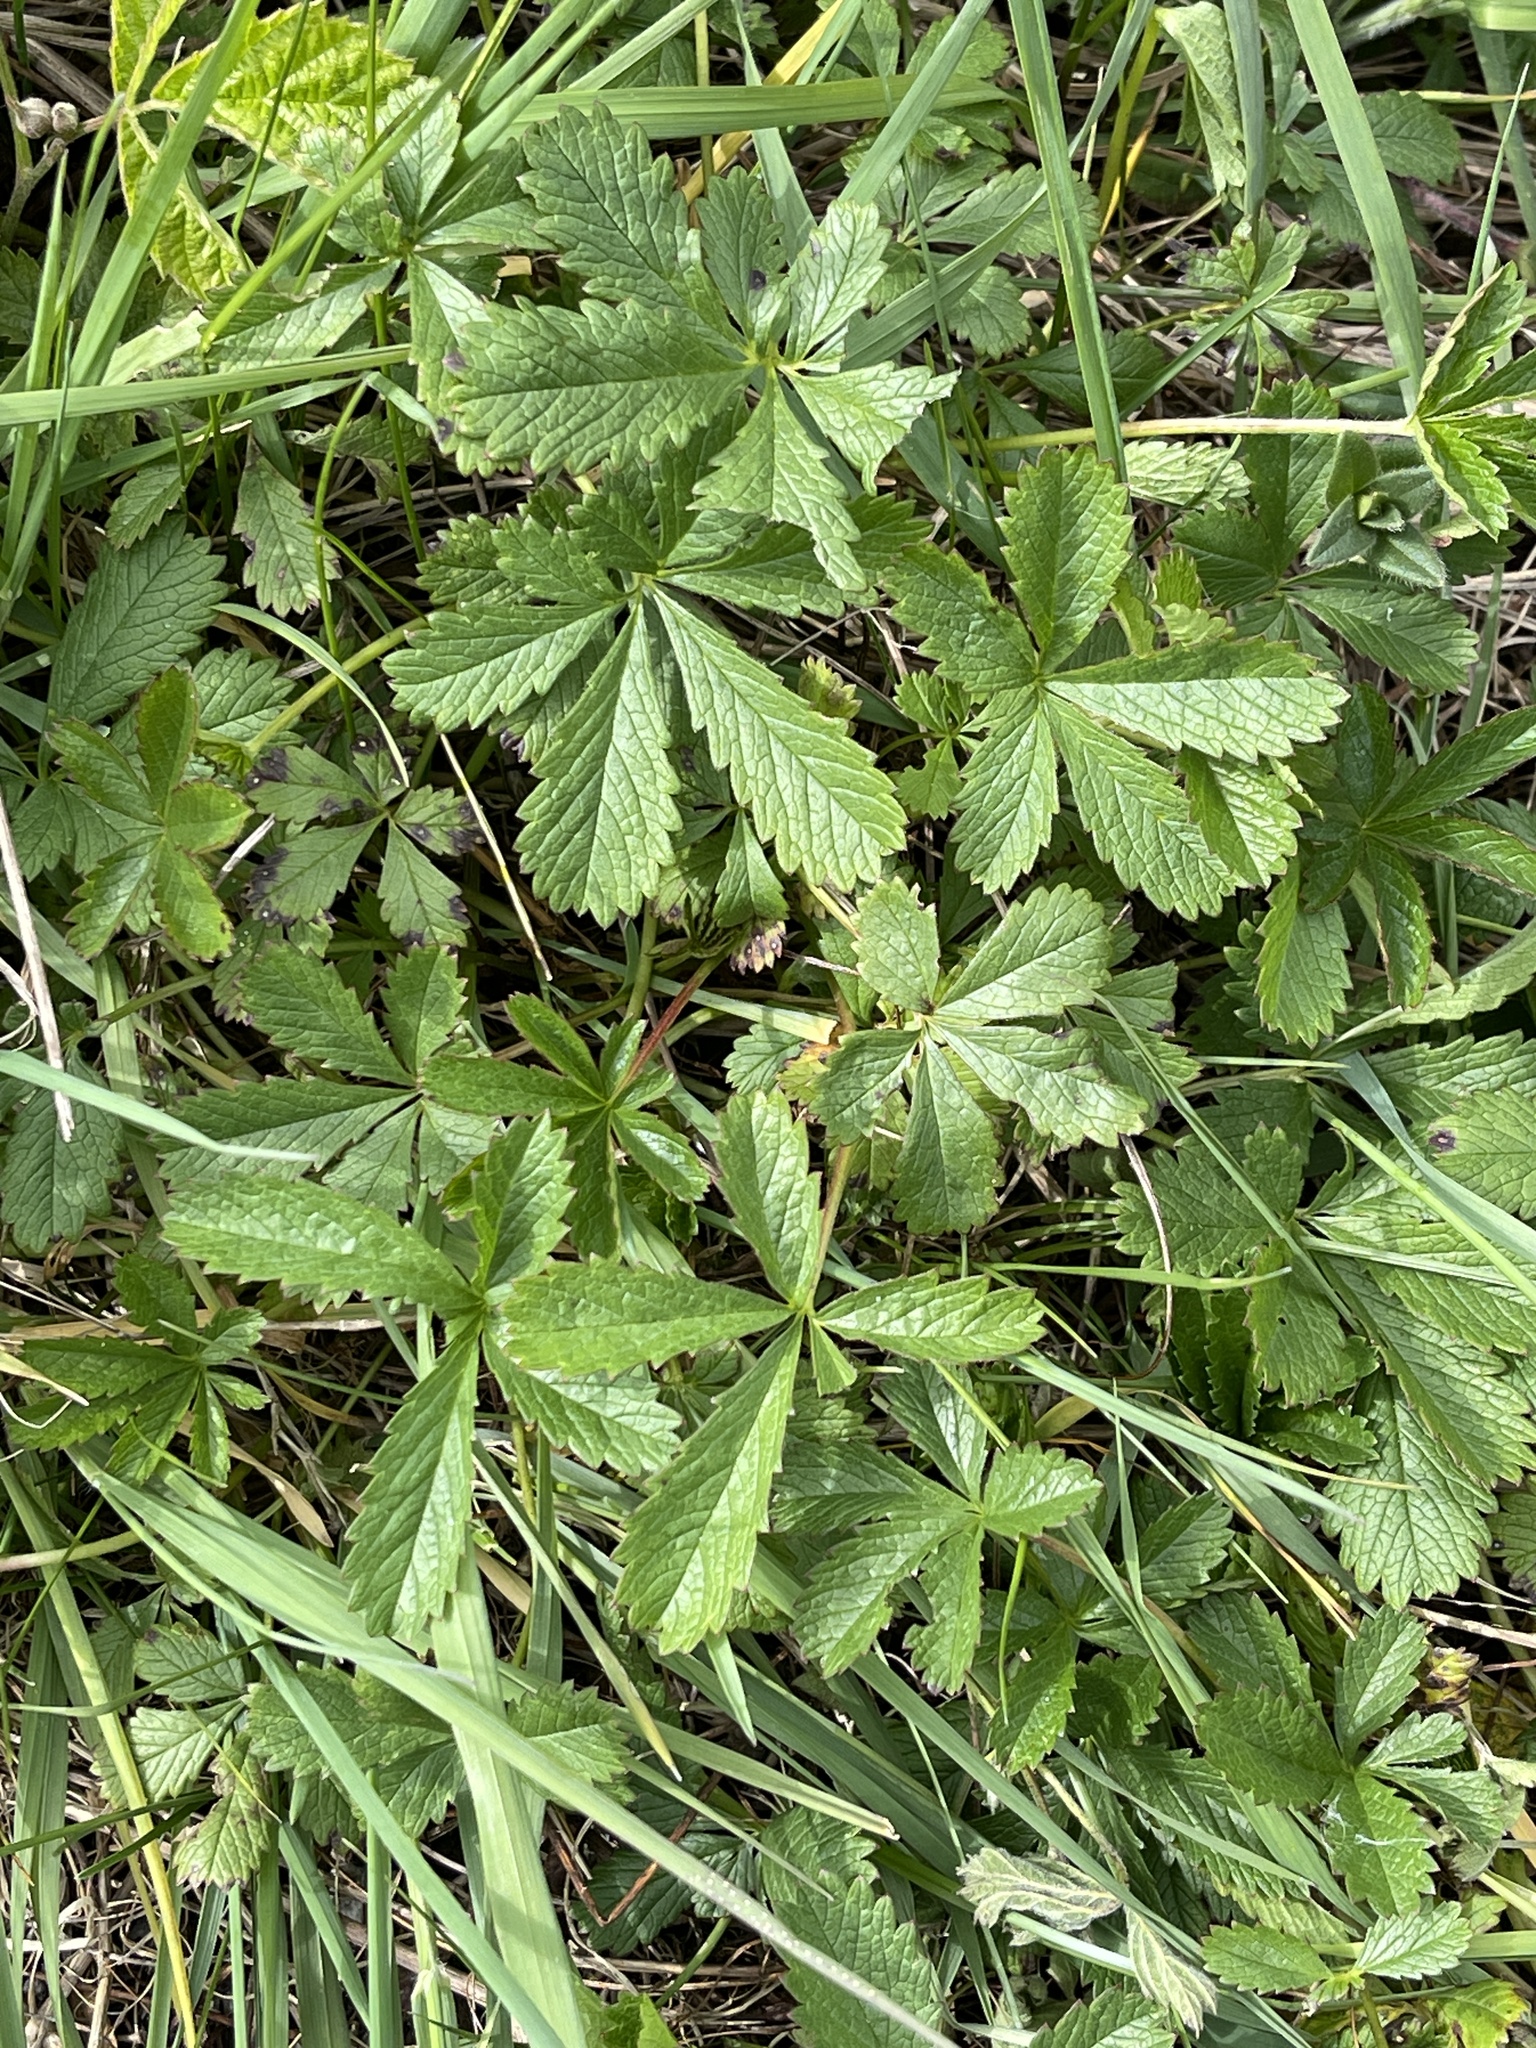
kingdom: Plantae
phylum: Tracheophyta
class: Magnoliopsida
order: Rosales
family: Rosaceae
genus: Potentilla
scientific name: Potentilla reptans
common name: Creeping cinquefoil
